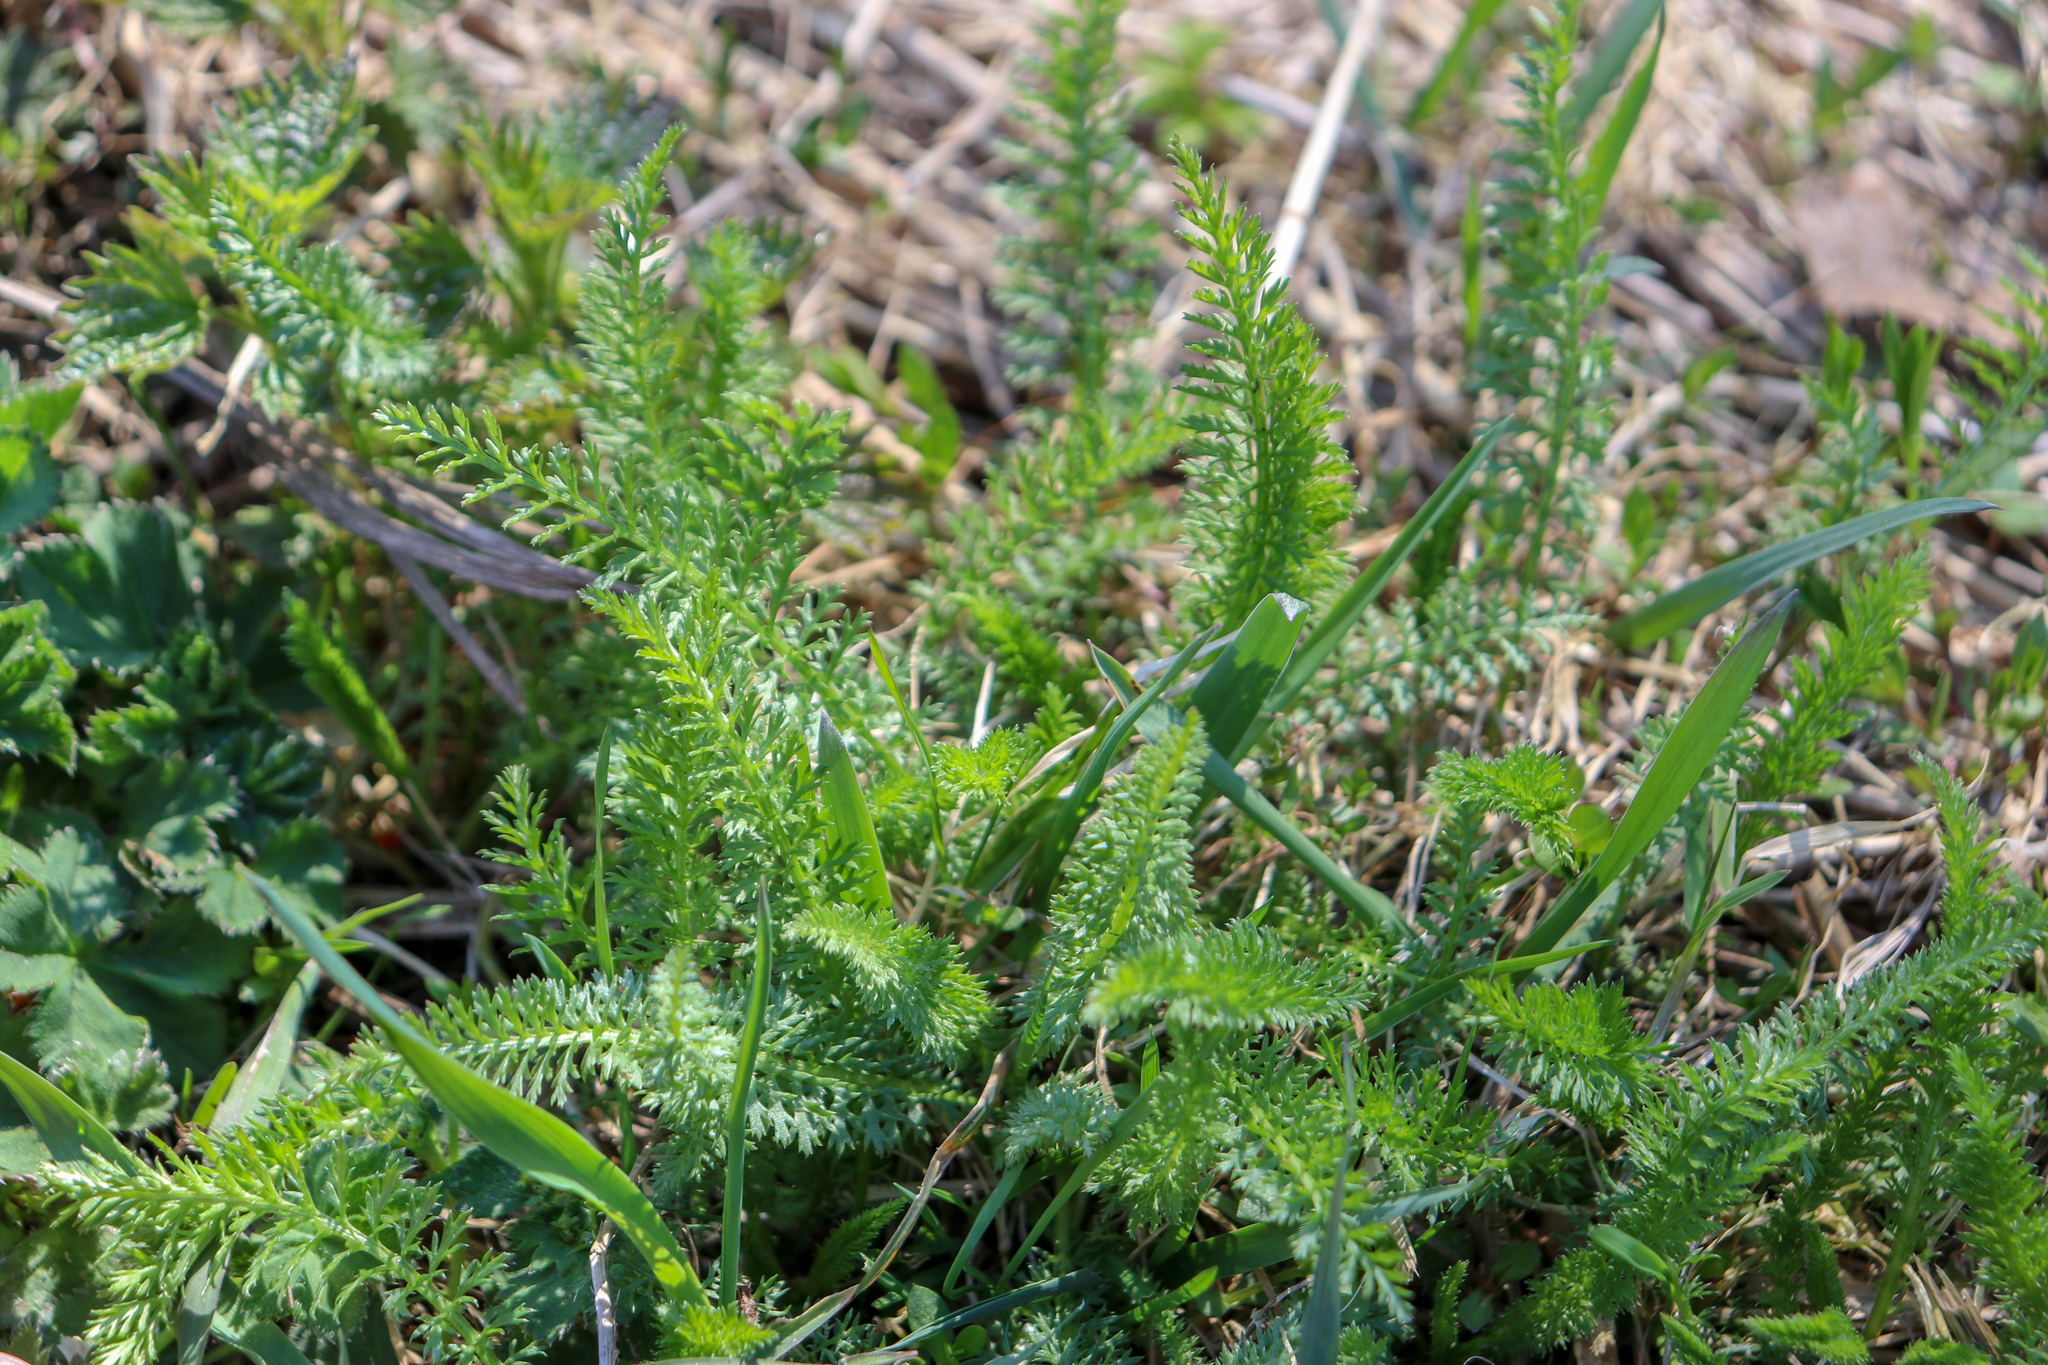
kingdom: Plantae
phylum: Tracheophyta
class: Magnoliopsida
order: Asterales
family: Asteraceae
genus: Achillea
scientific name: Achillea millefolium
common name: Yarrow
